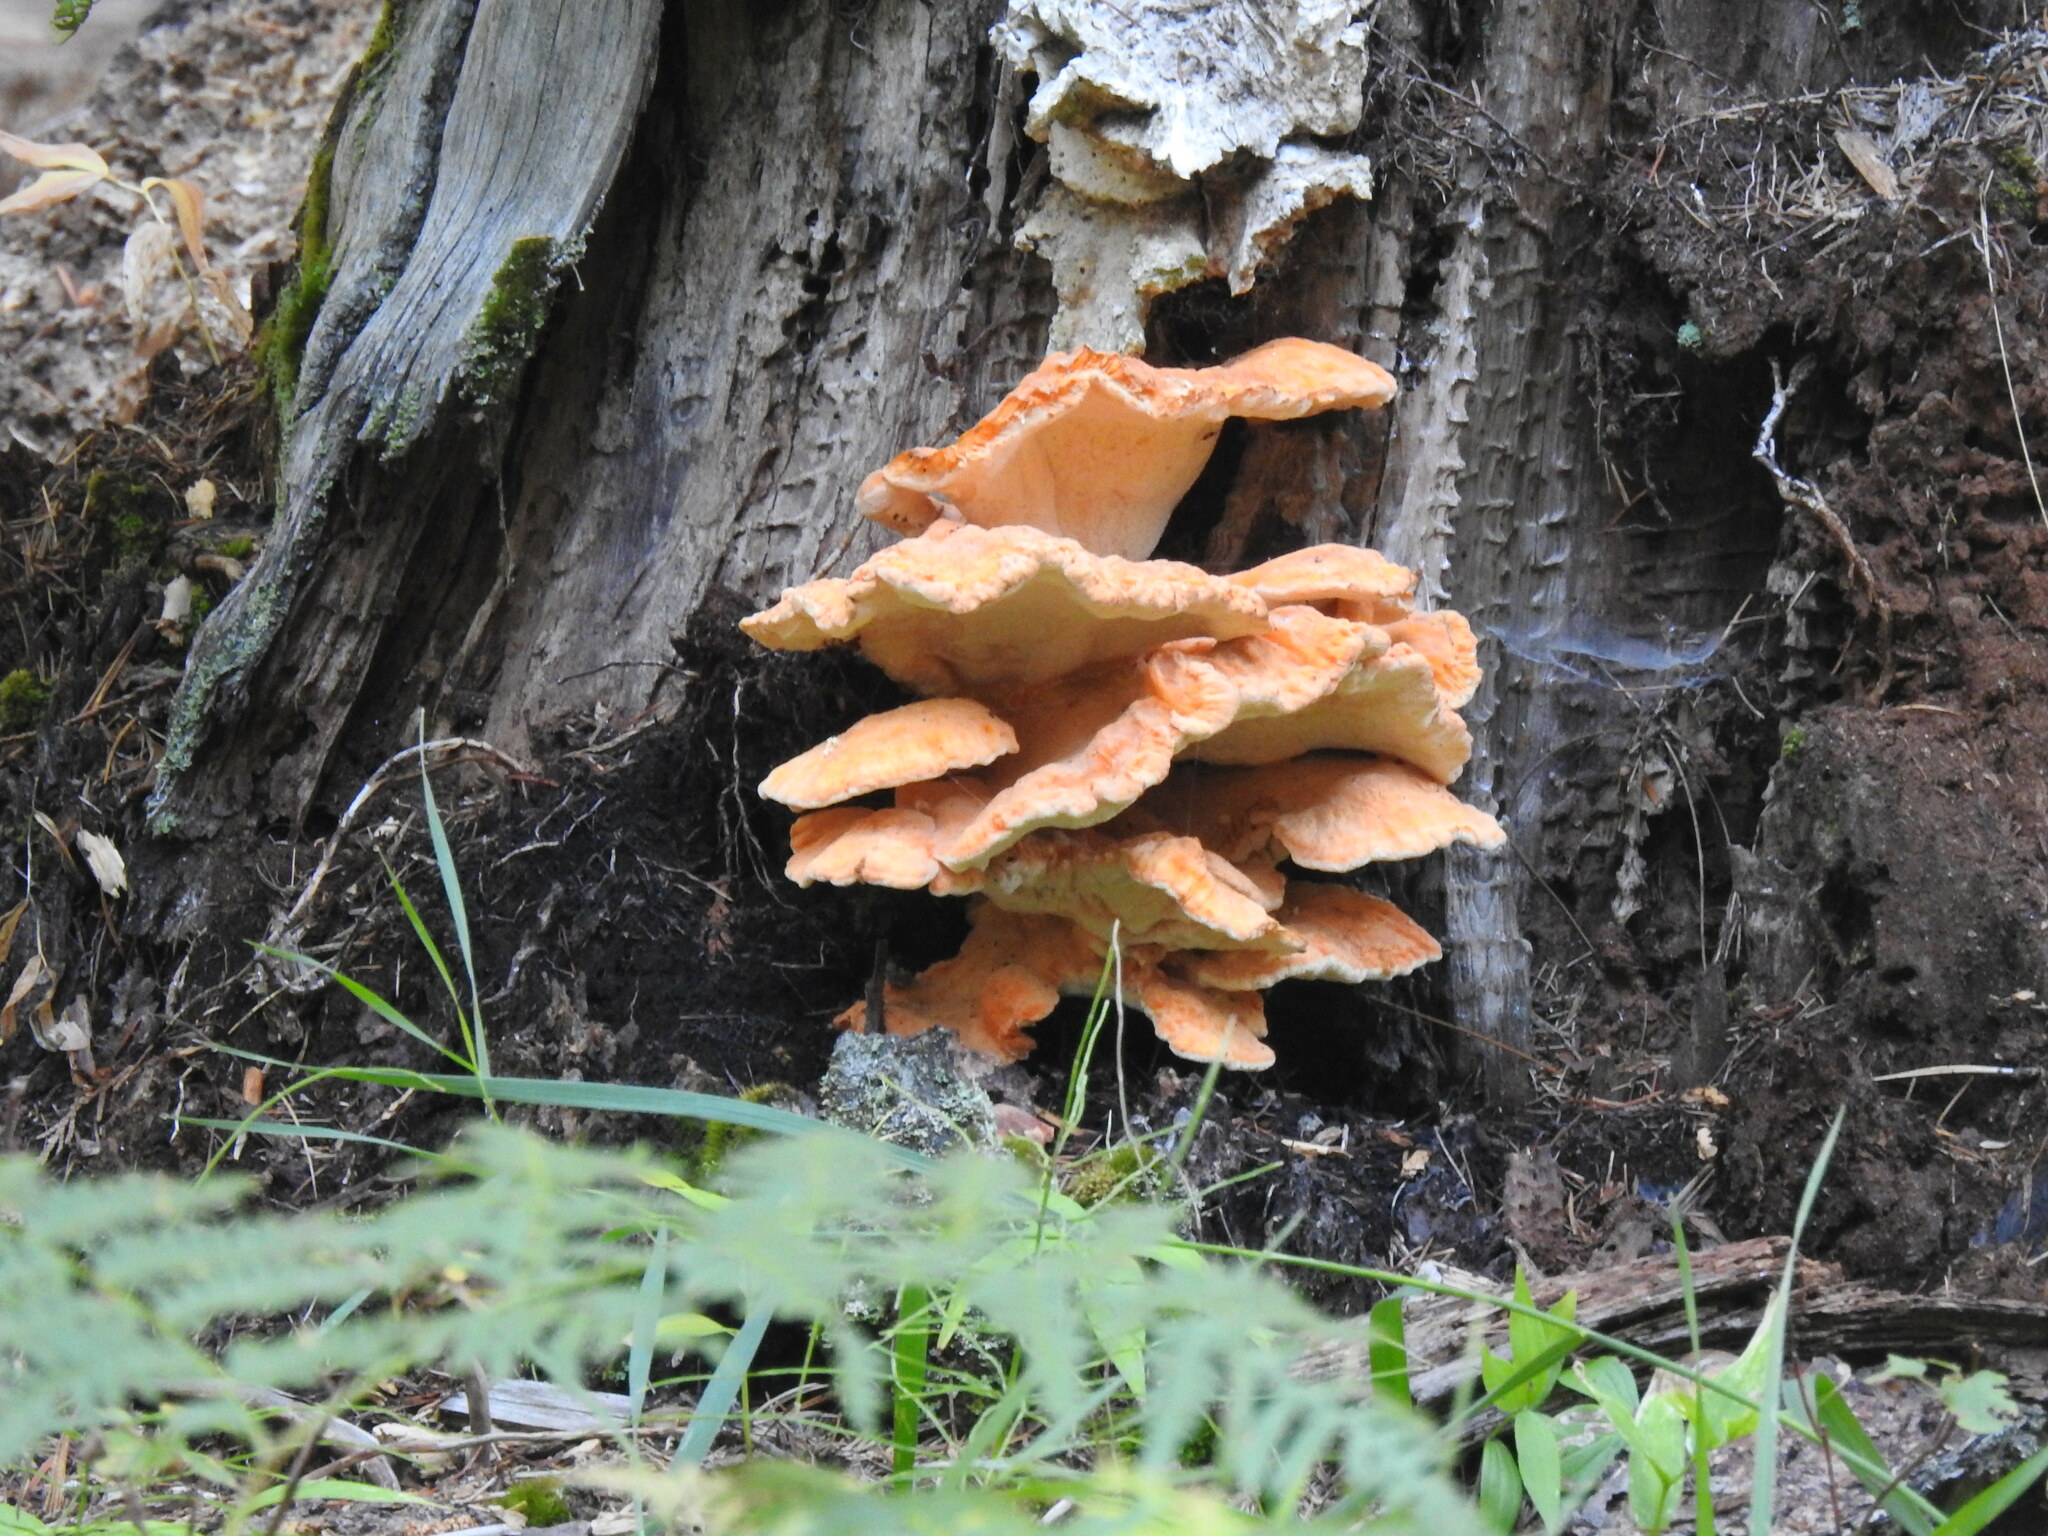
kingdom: Fungi
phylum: Basidiomycota
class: Agaricomycetes
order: Polyporales
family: Laetiporaceae
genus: Laetiporus
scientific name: Laetiporus conifericola
